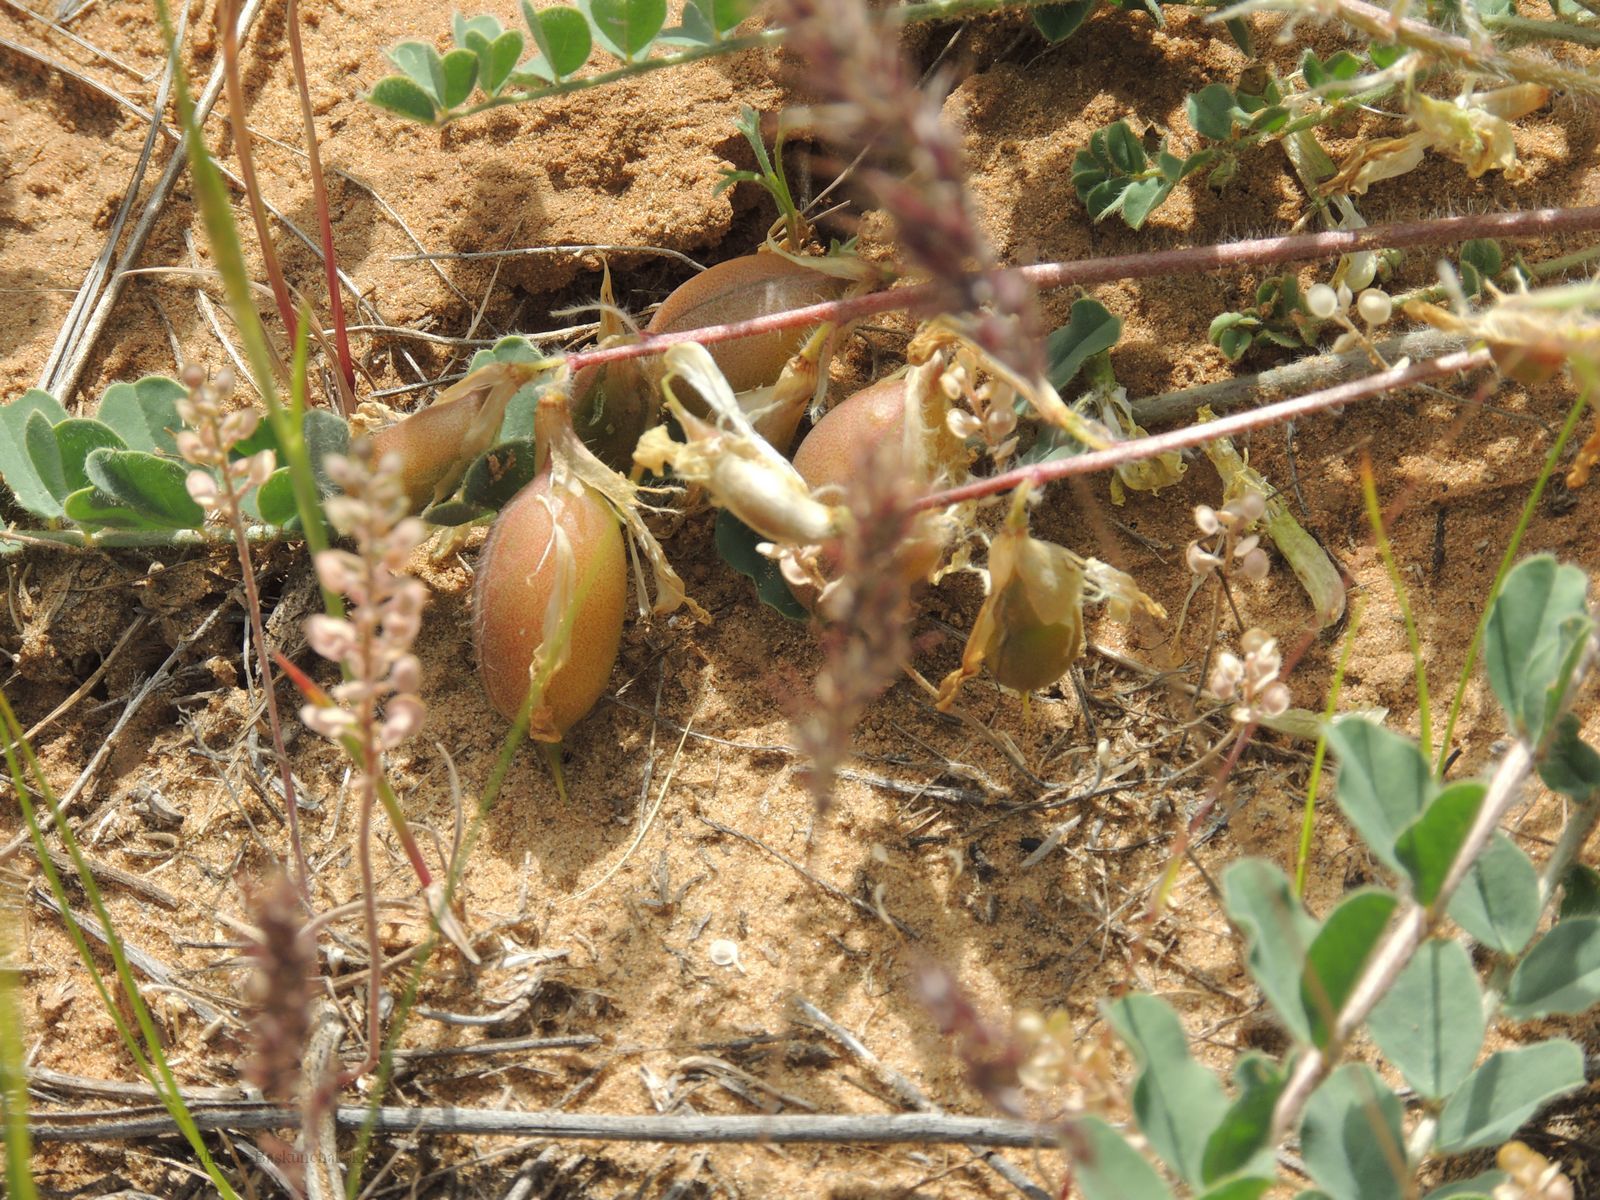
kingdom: Plantae
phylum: Tracheophyta
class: Magnoliopsida
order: Fabales
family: Fabaceae
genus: Astragalus
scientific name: Astragalus longipetalus
